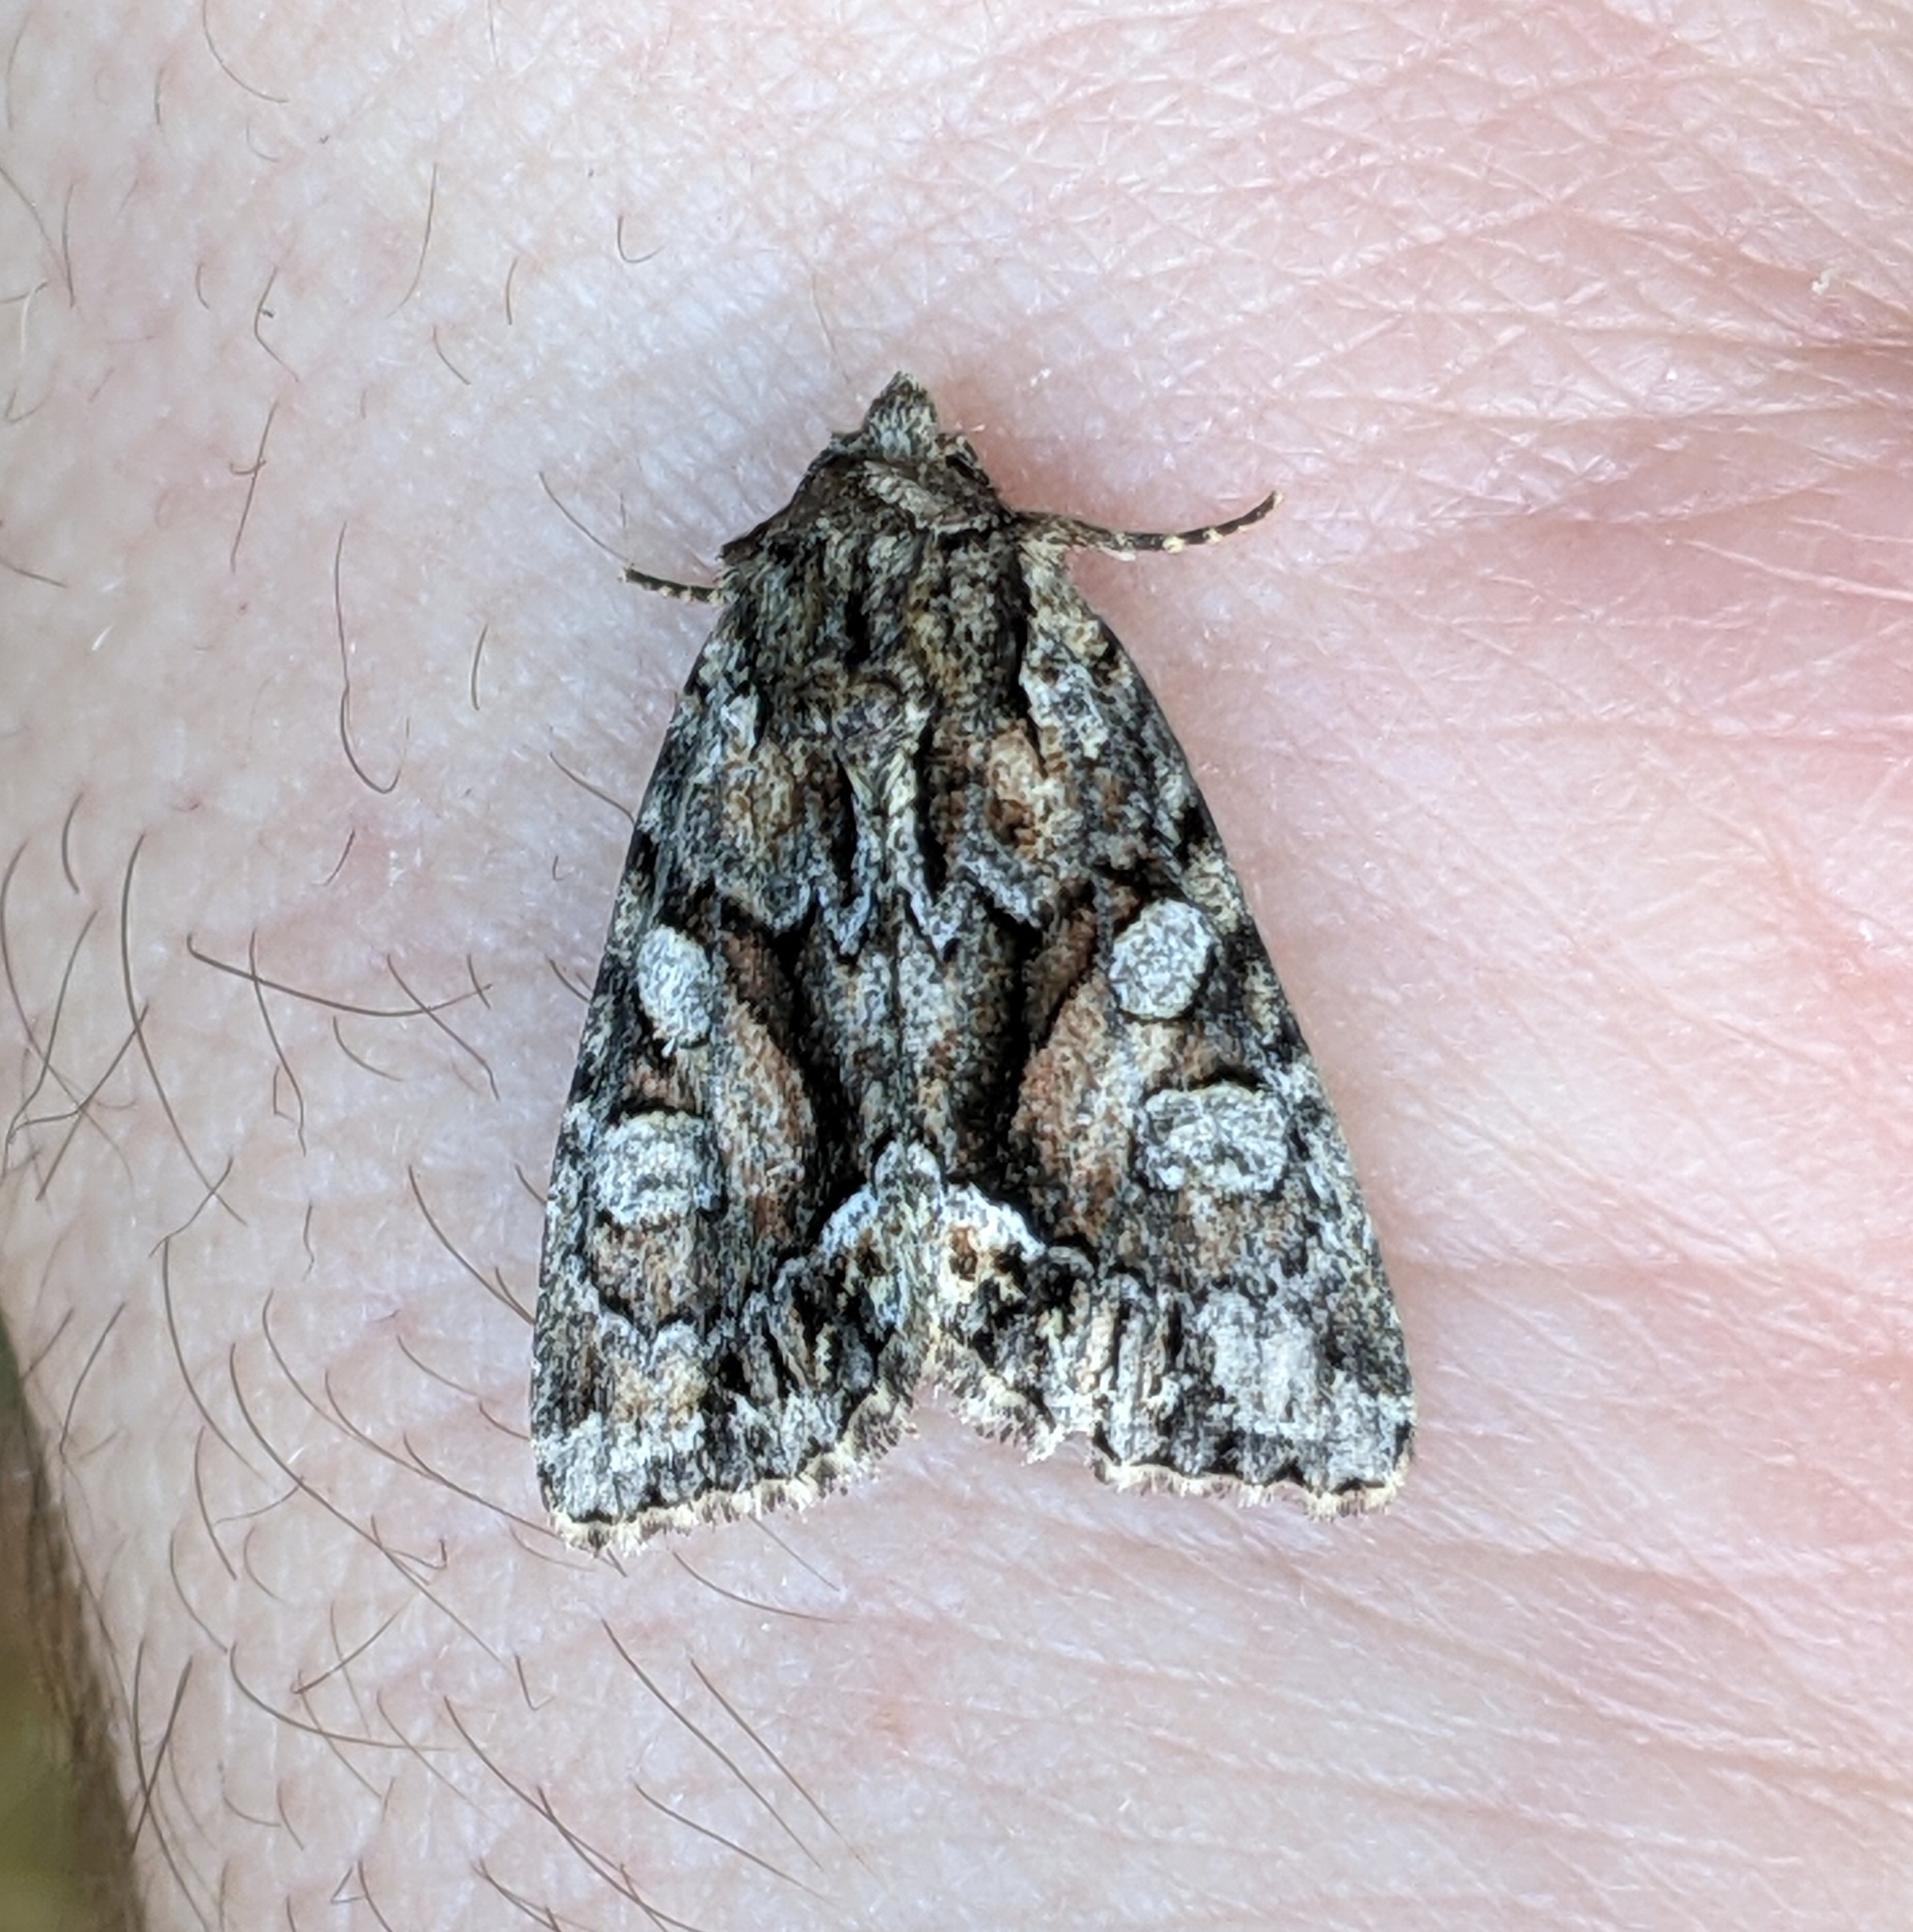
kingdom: Animalia
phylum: Arthropoda
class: Insecta
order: Lepidoptera
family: Noctuidae
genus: Oligia
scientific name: Oligia divesta
